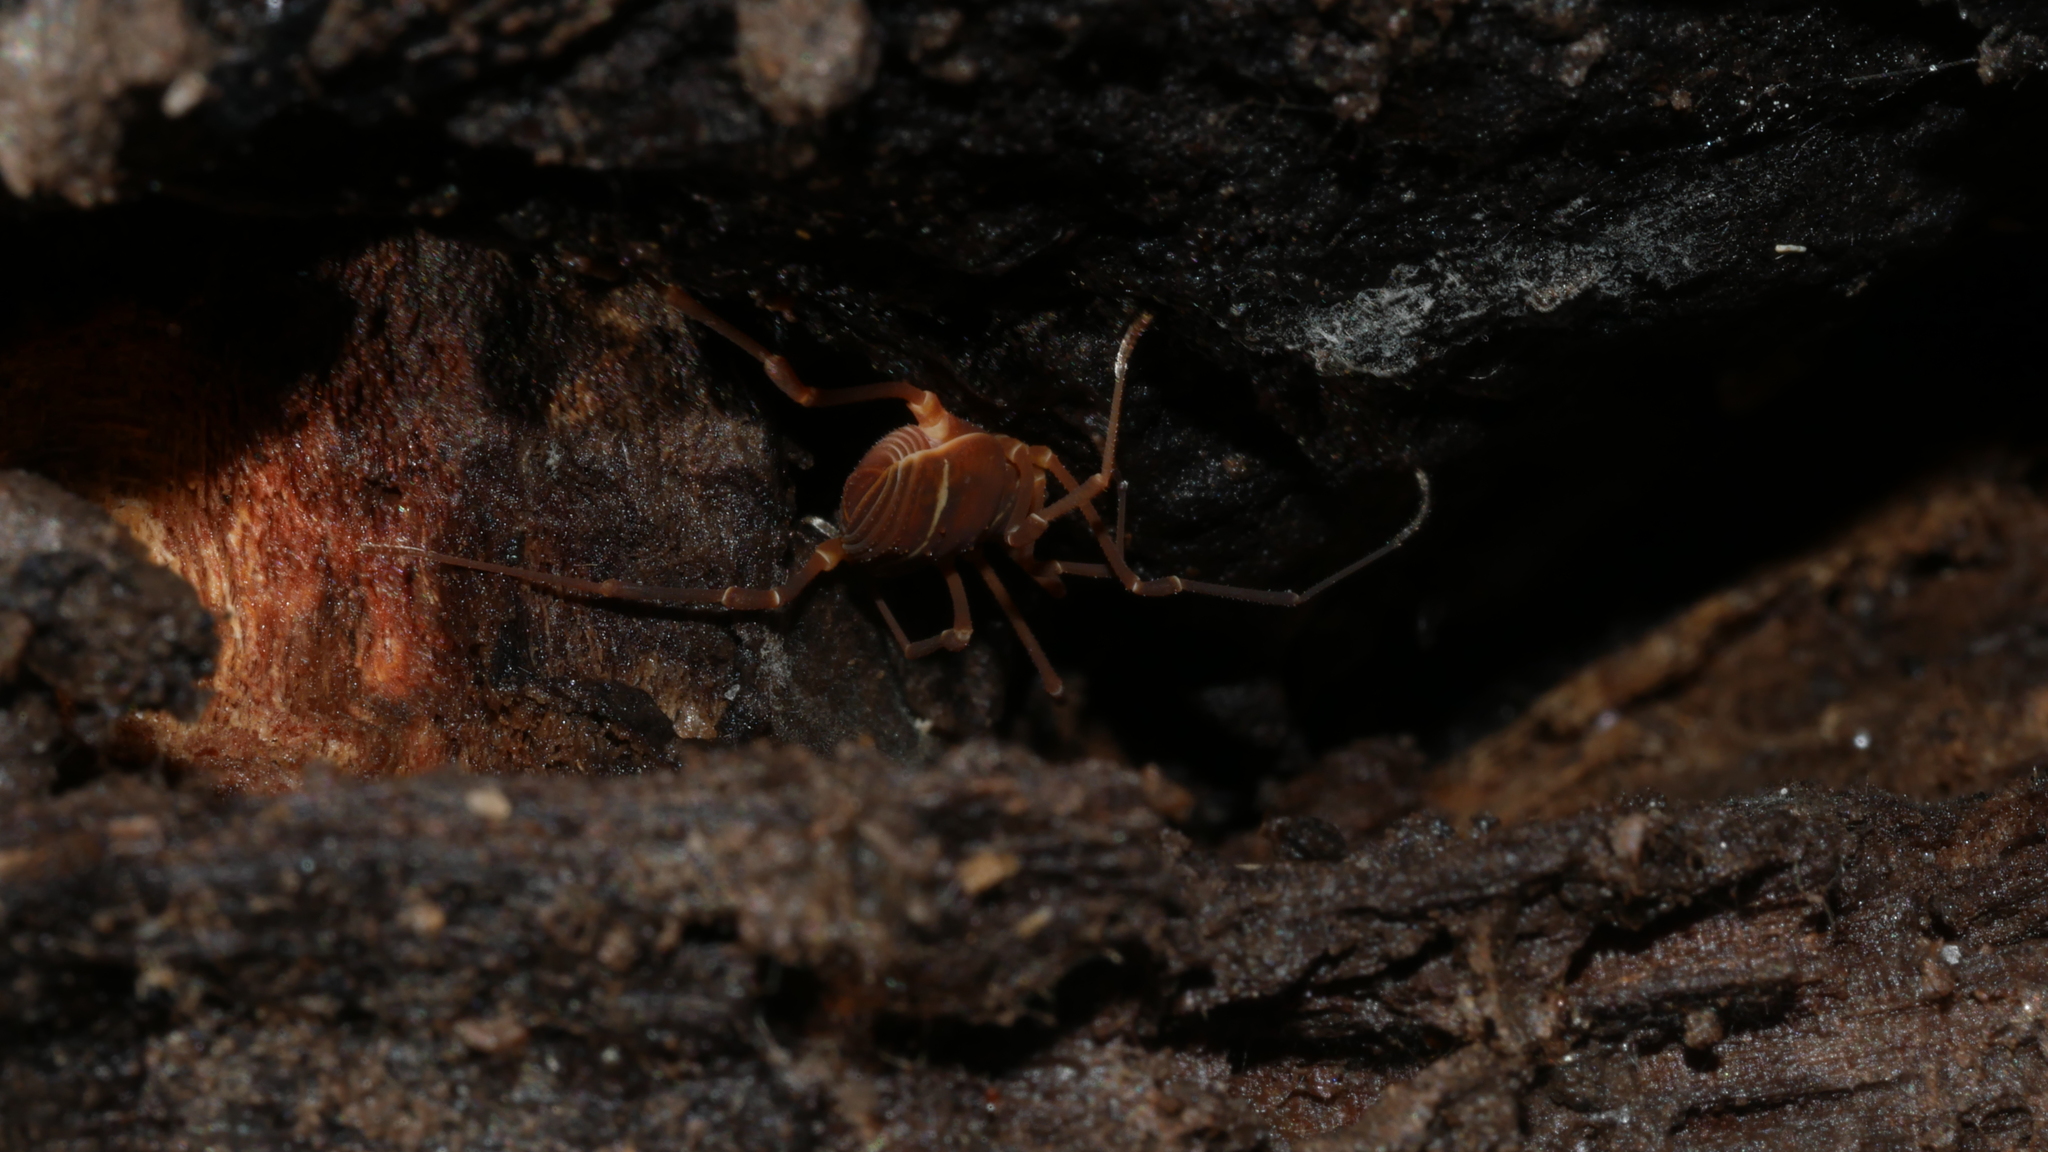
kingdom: Animalia
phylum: Arthropoda
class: Arachnida
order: Opiliones
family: Cosmetidae
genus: Libitioides
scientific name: Libitioides sayi
